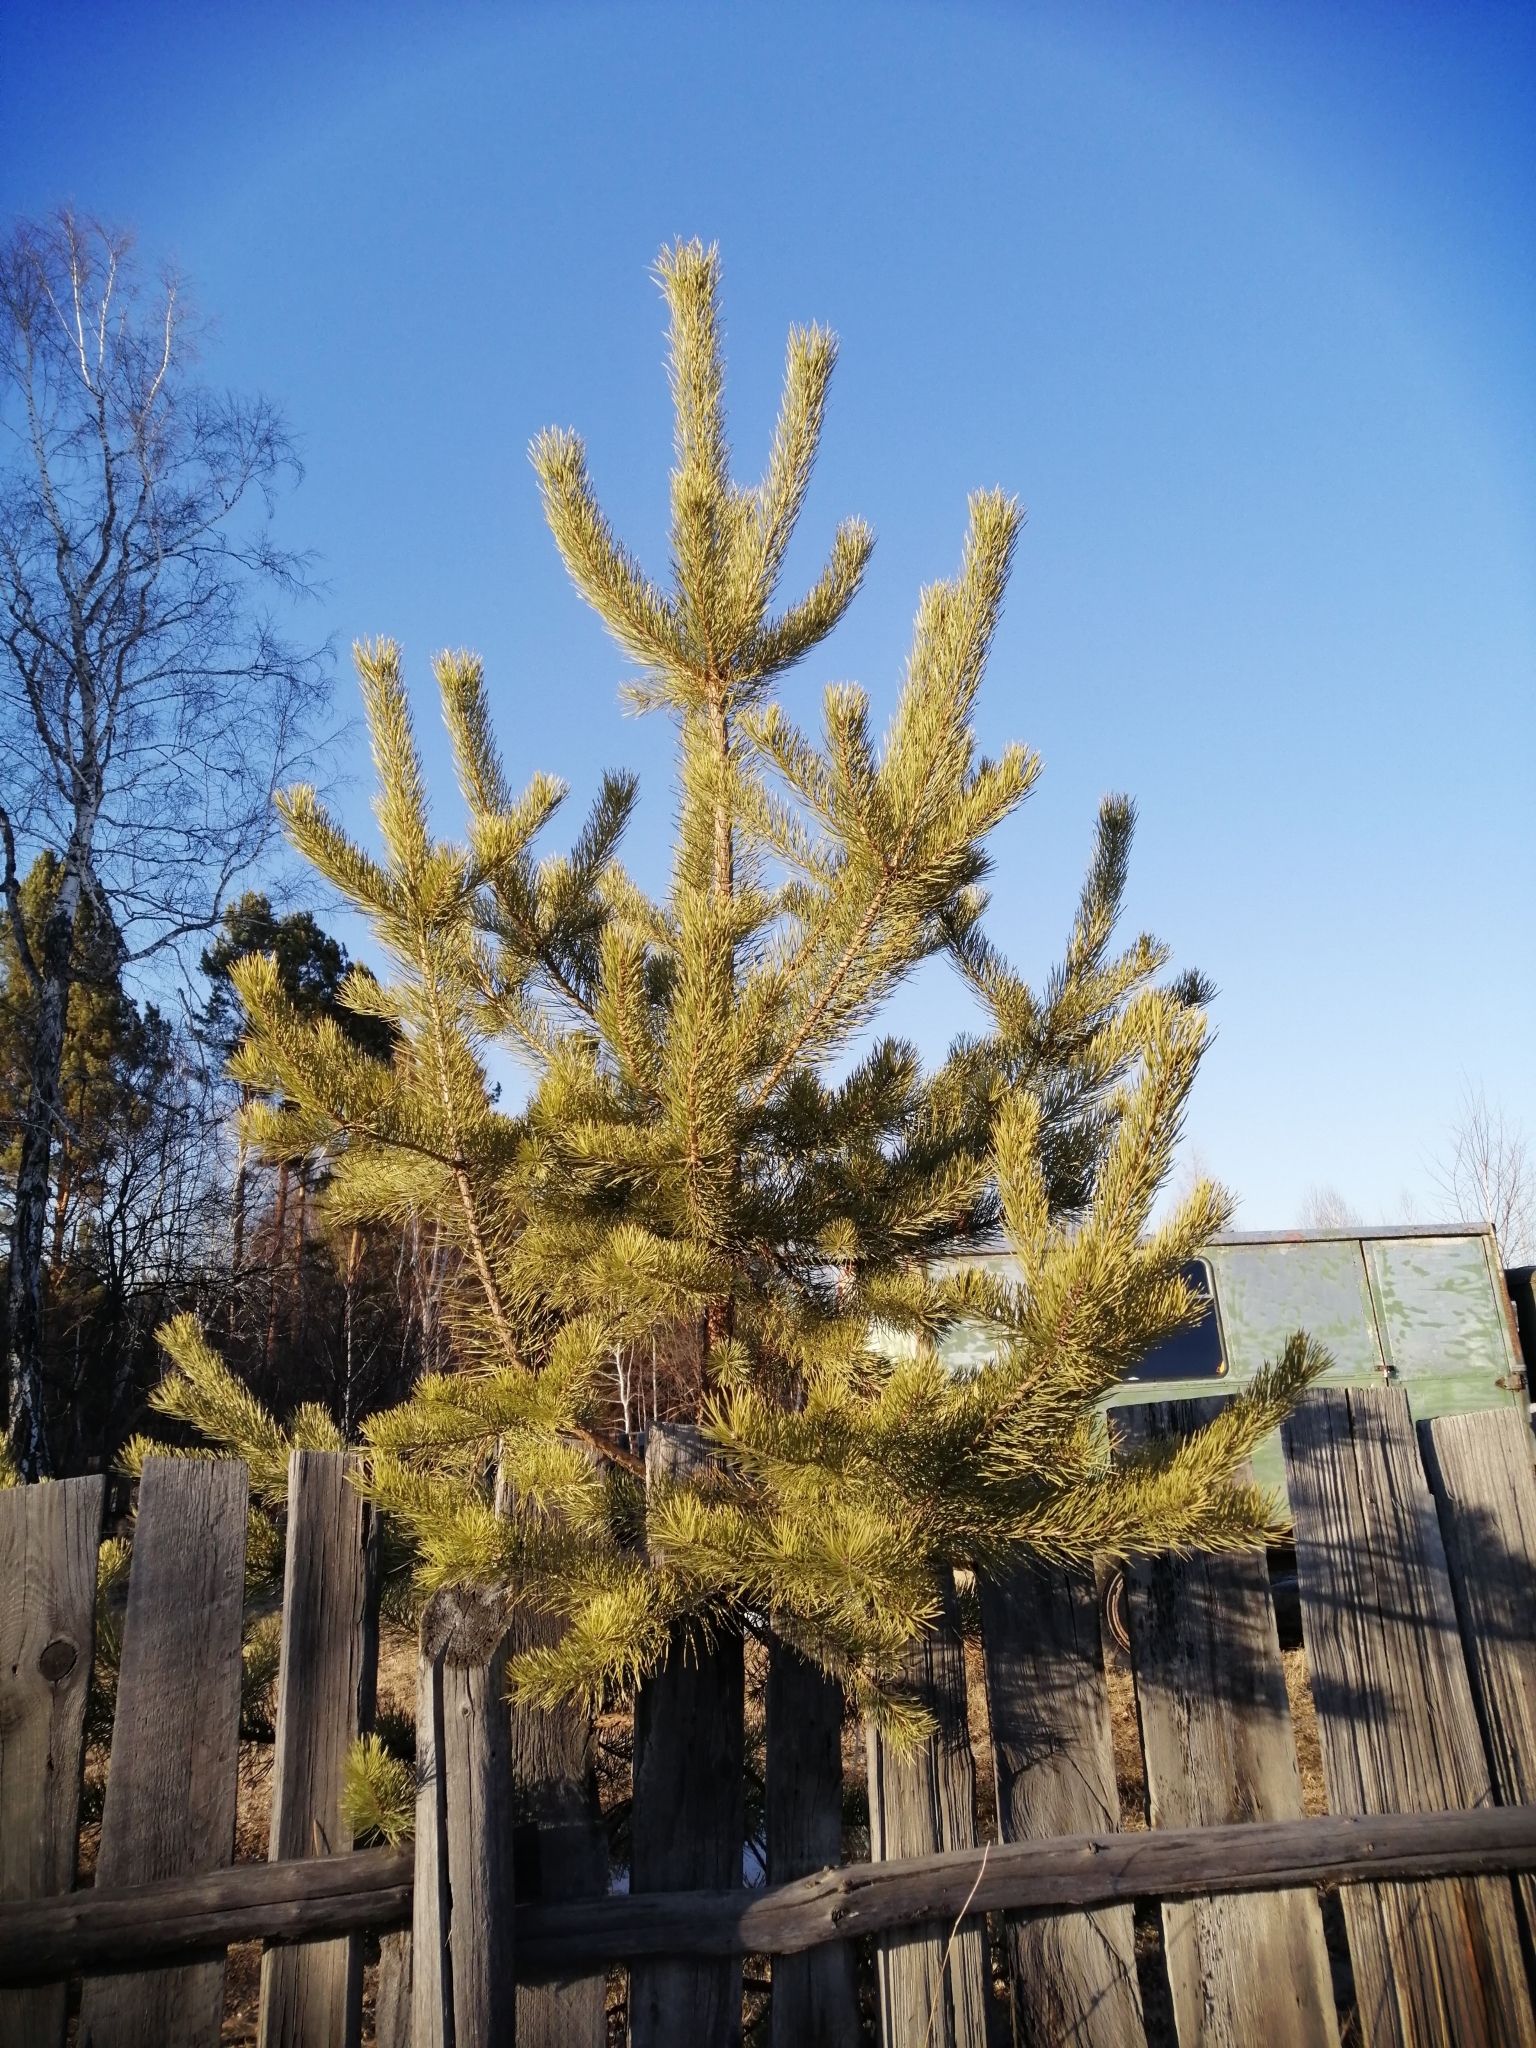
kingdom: Plantae
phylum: Tracheophyta
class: Pinopsida
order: Pinales
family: Pinaceae
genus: Pinus
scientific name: Pinus sylvestris
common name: Scots pine
